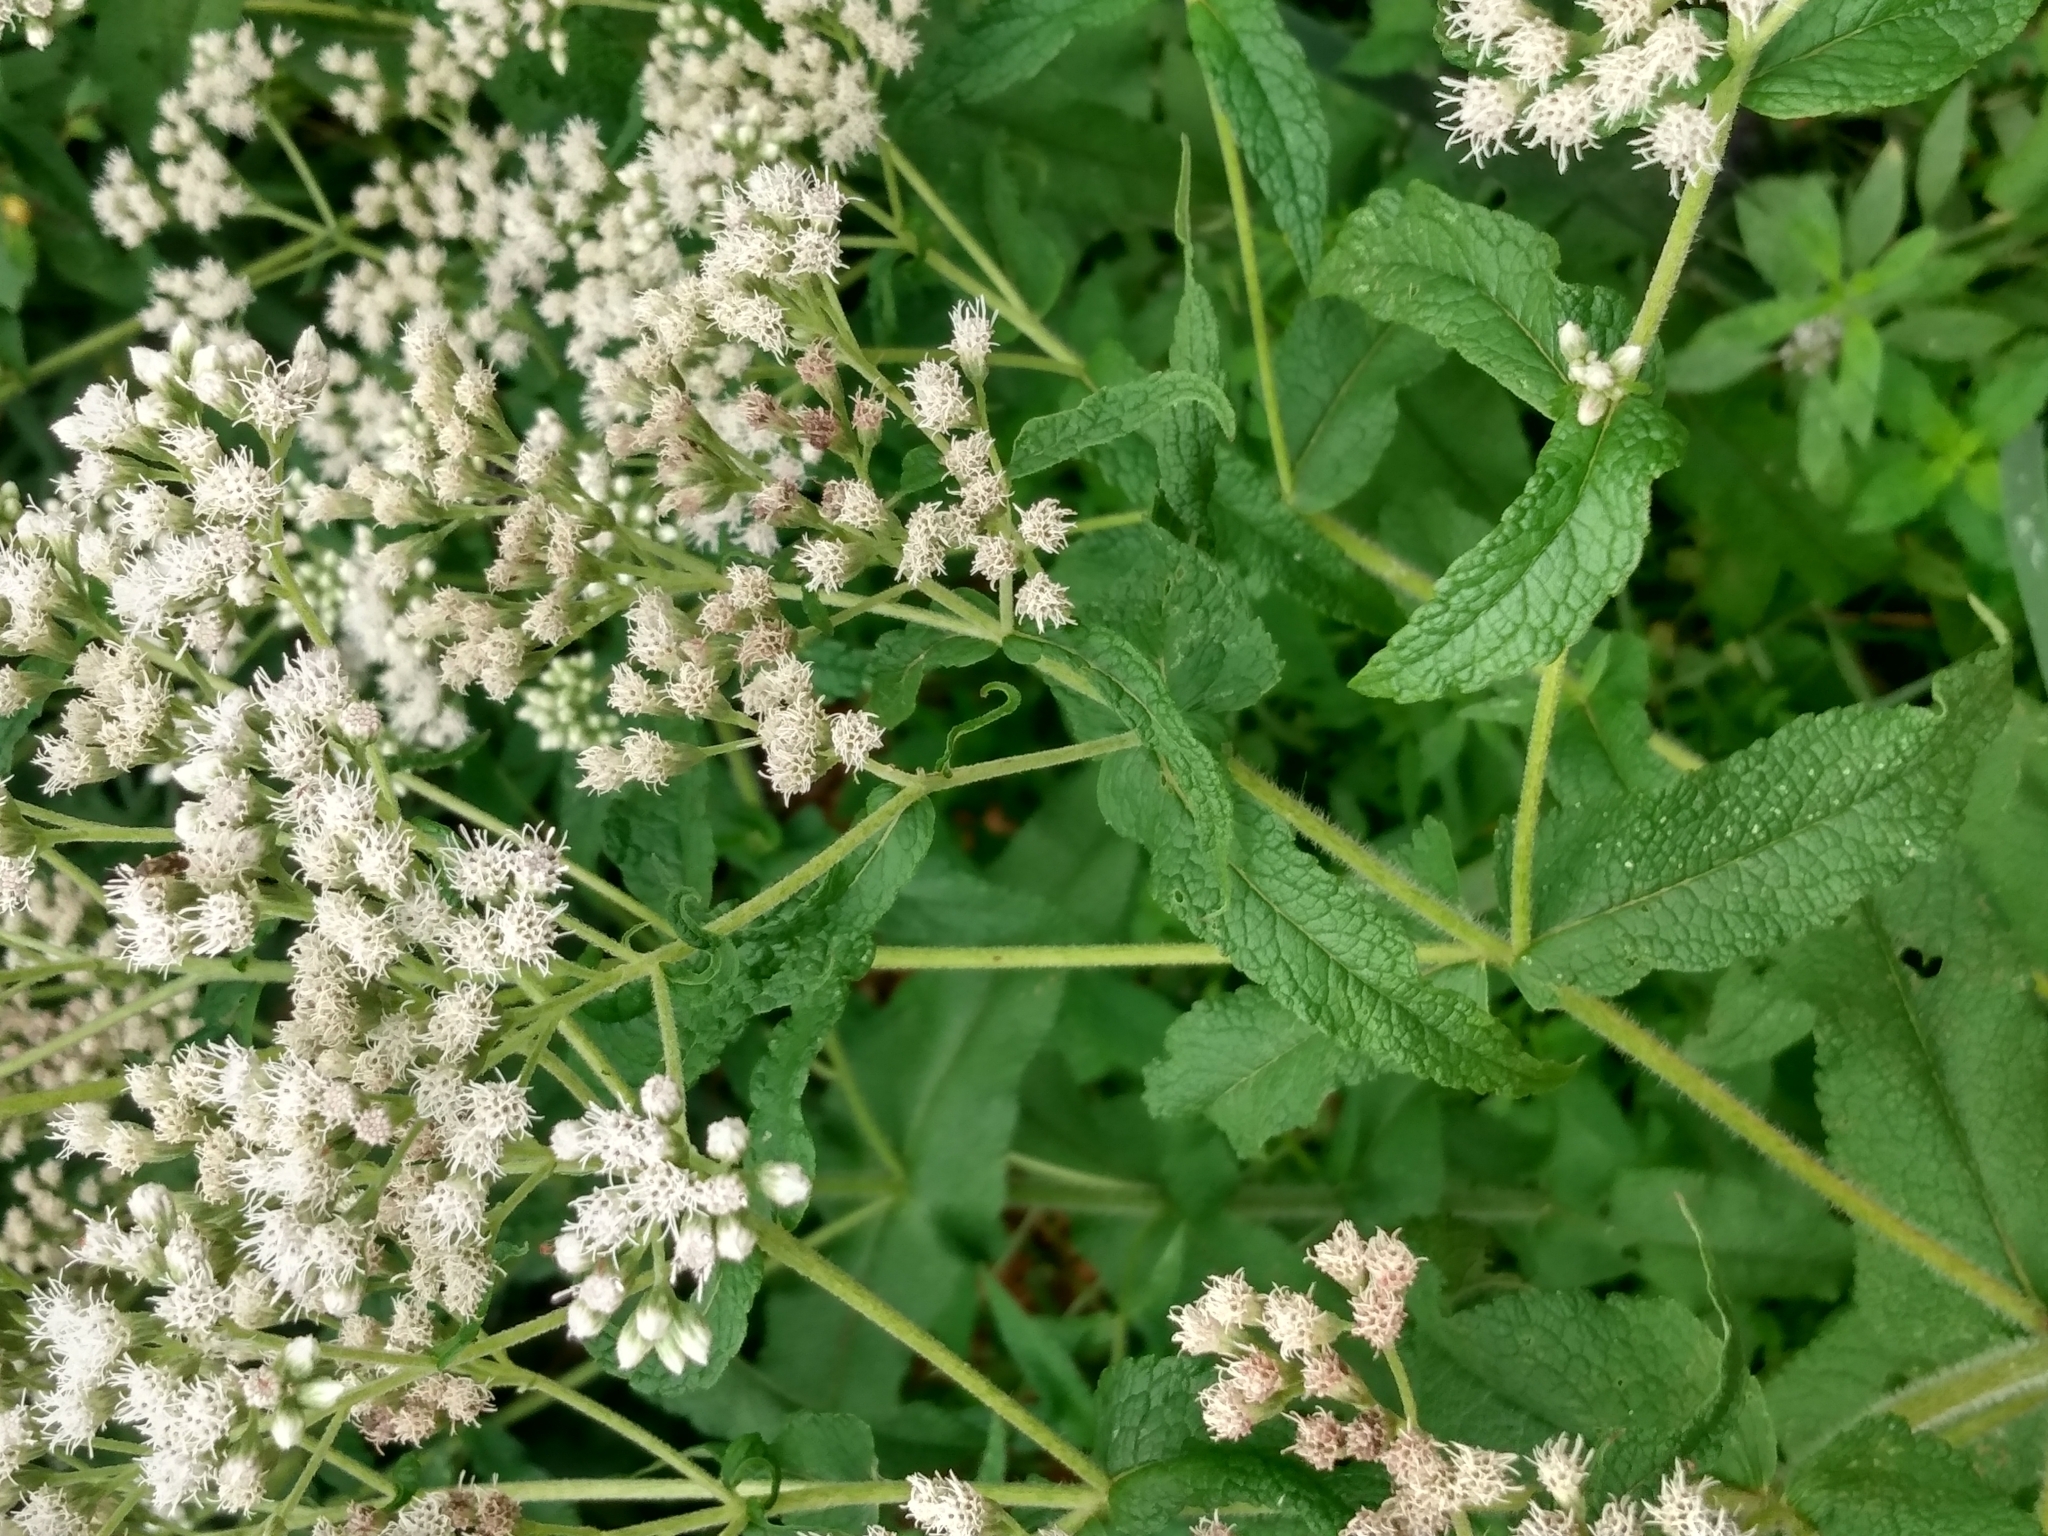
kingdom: Plantae
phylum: Tracheophyta
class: Magnoliopsida
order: Asterales
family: Asteraceae
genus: Eupatorium
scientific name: Eupatorium perfoliatum
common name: Boneset
